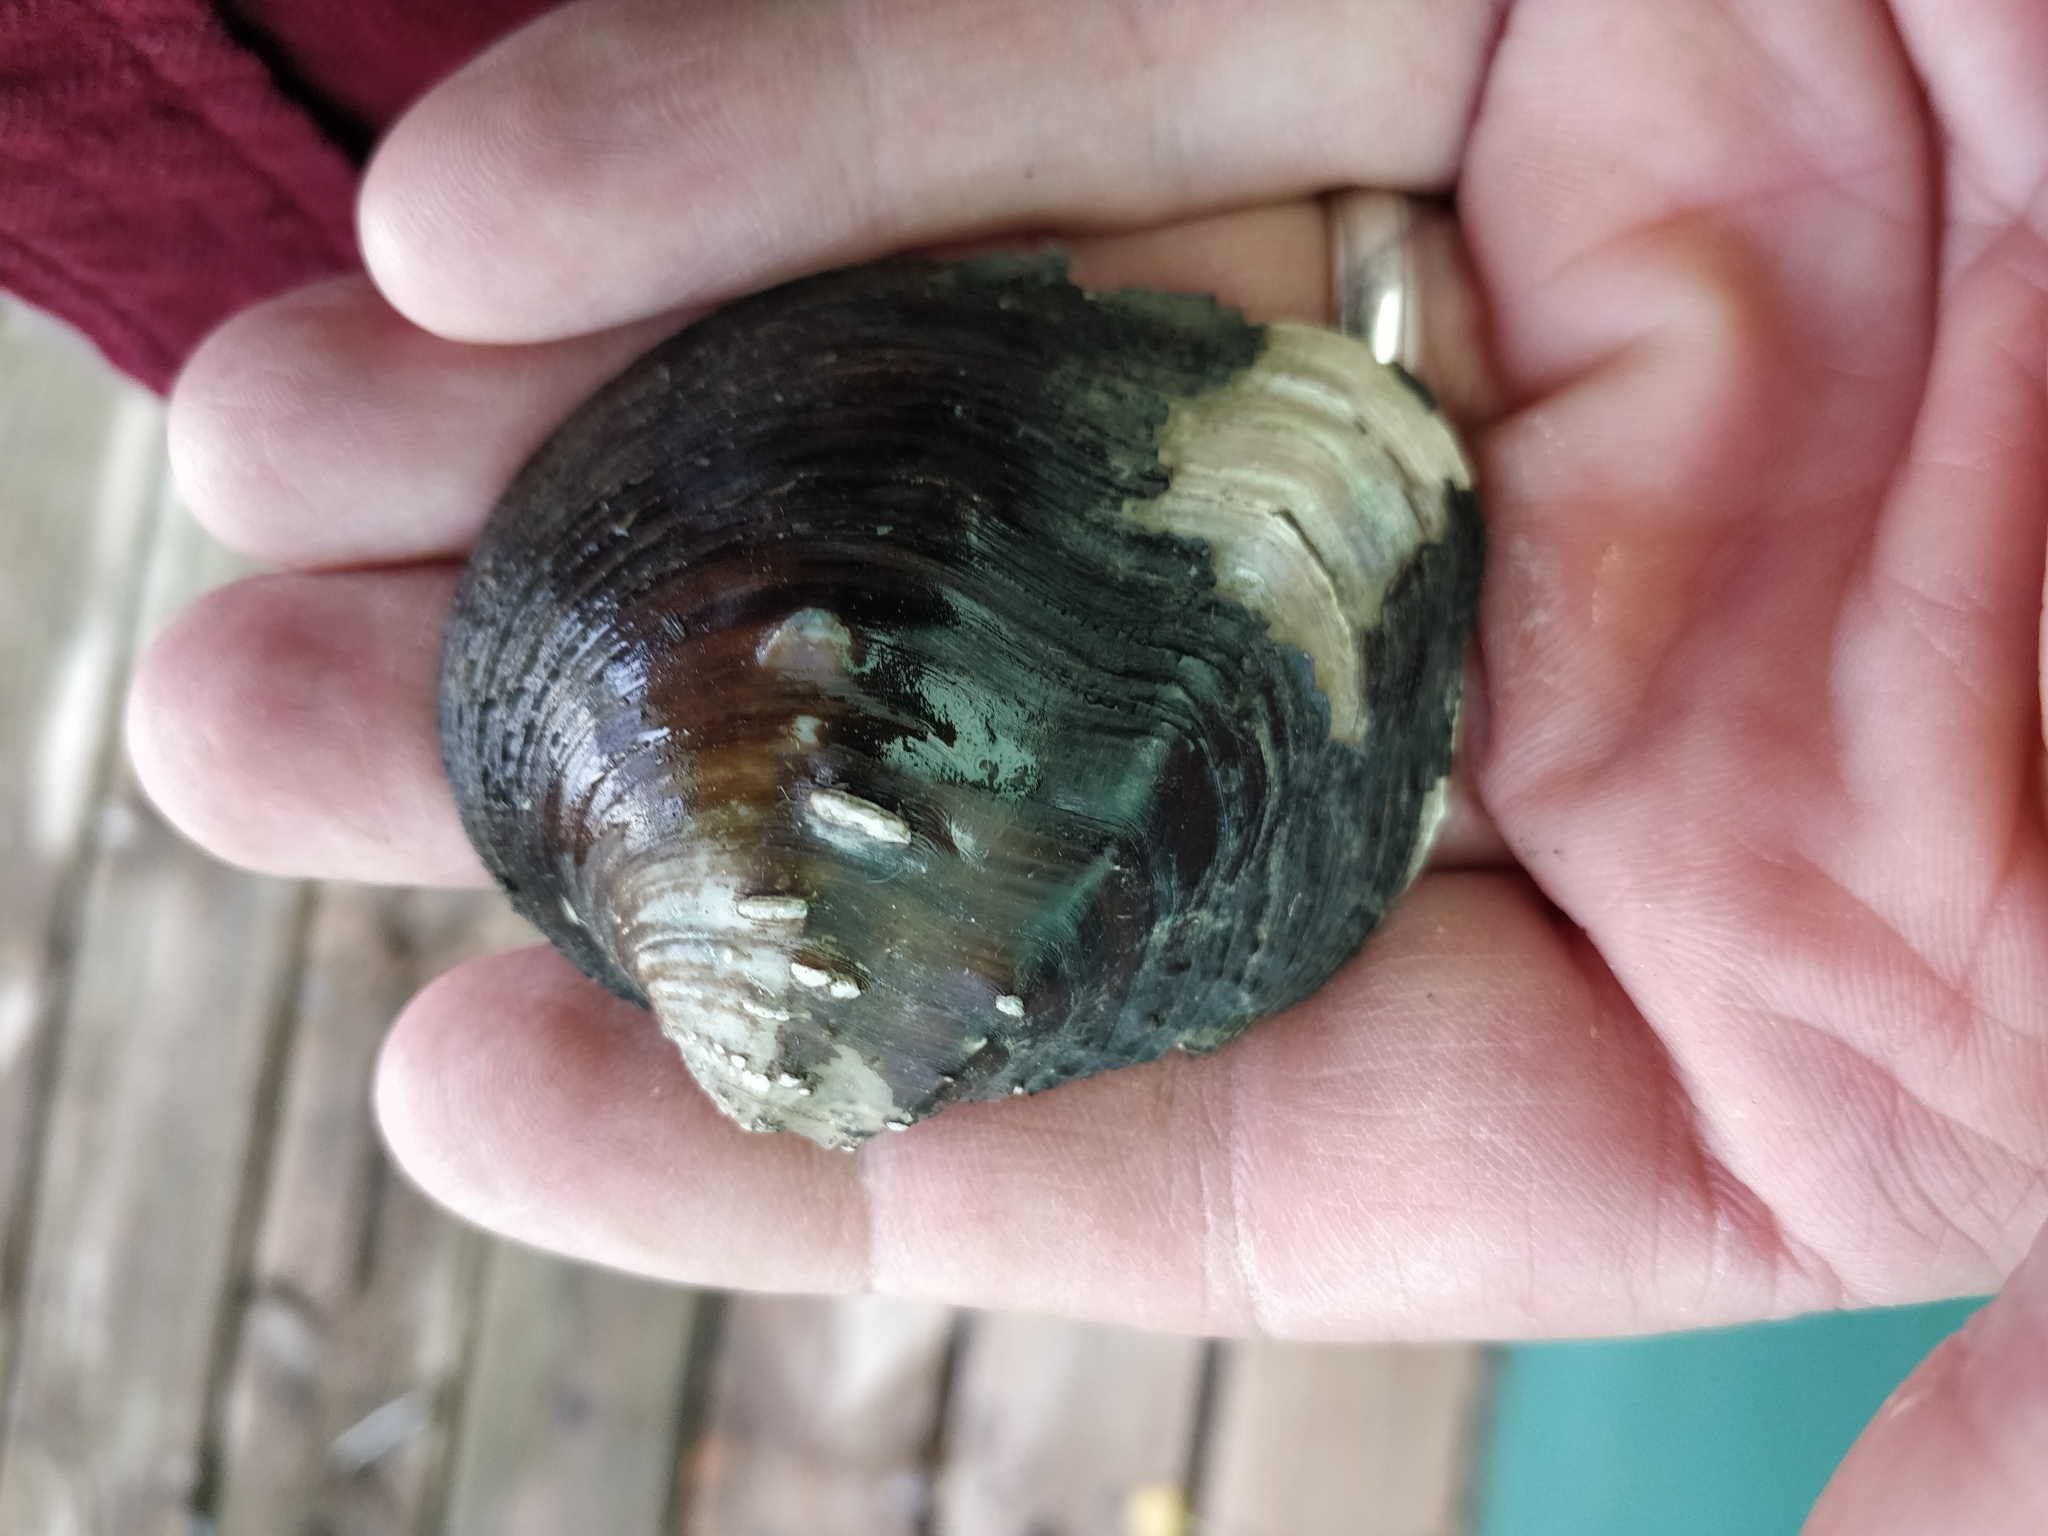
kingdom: Animalia
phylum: Mollusca
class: Bivalvia
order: Unionida
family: Unionidae
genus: Quadrula
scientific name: Quadrula quadrula
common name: Mapleleaf
